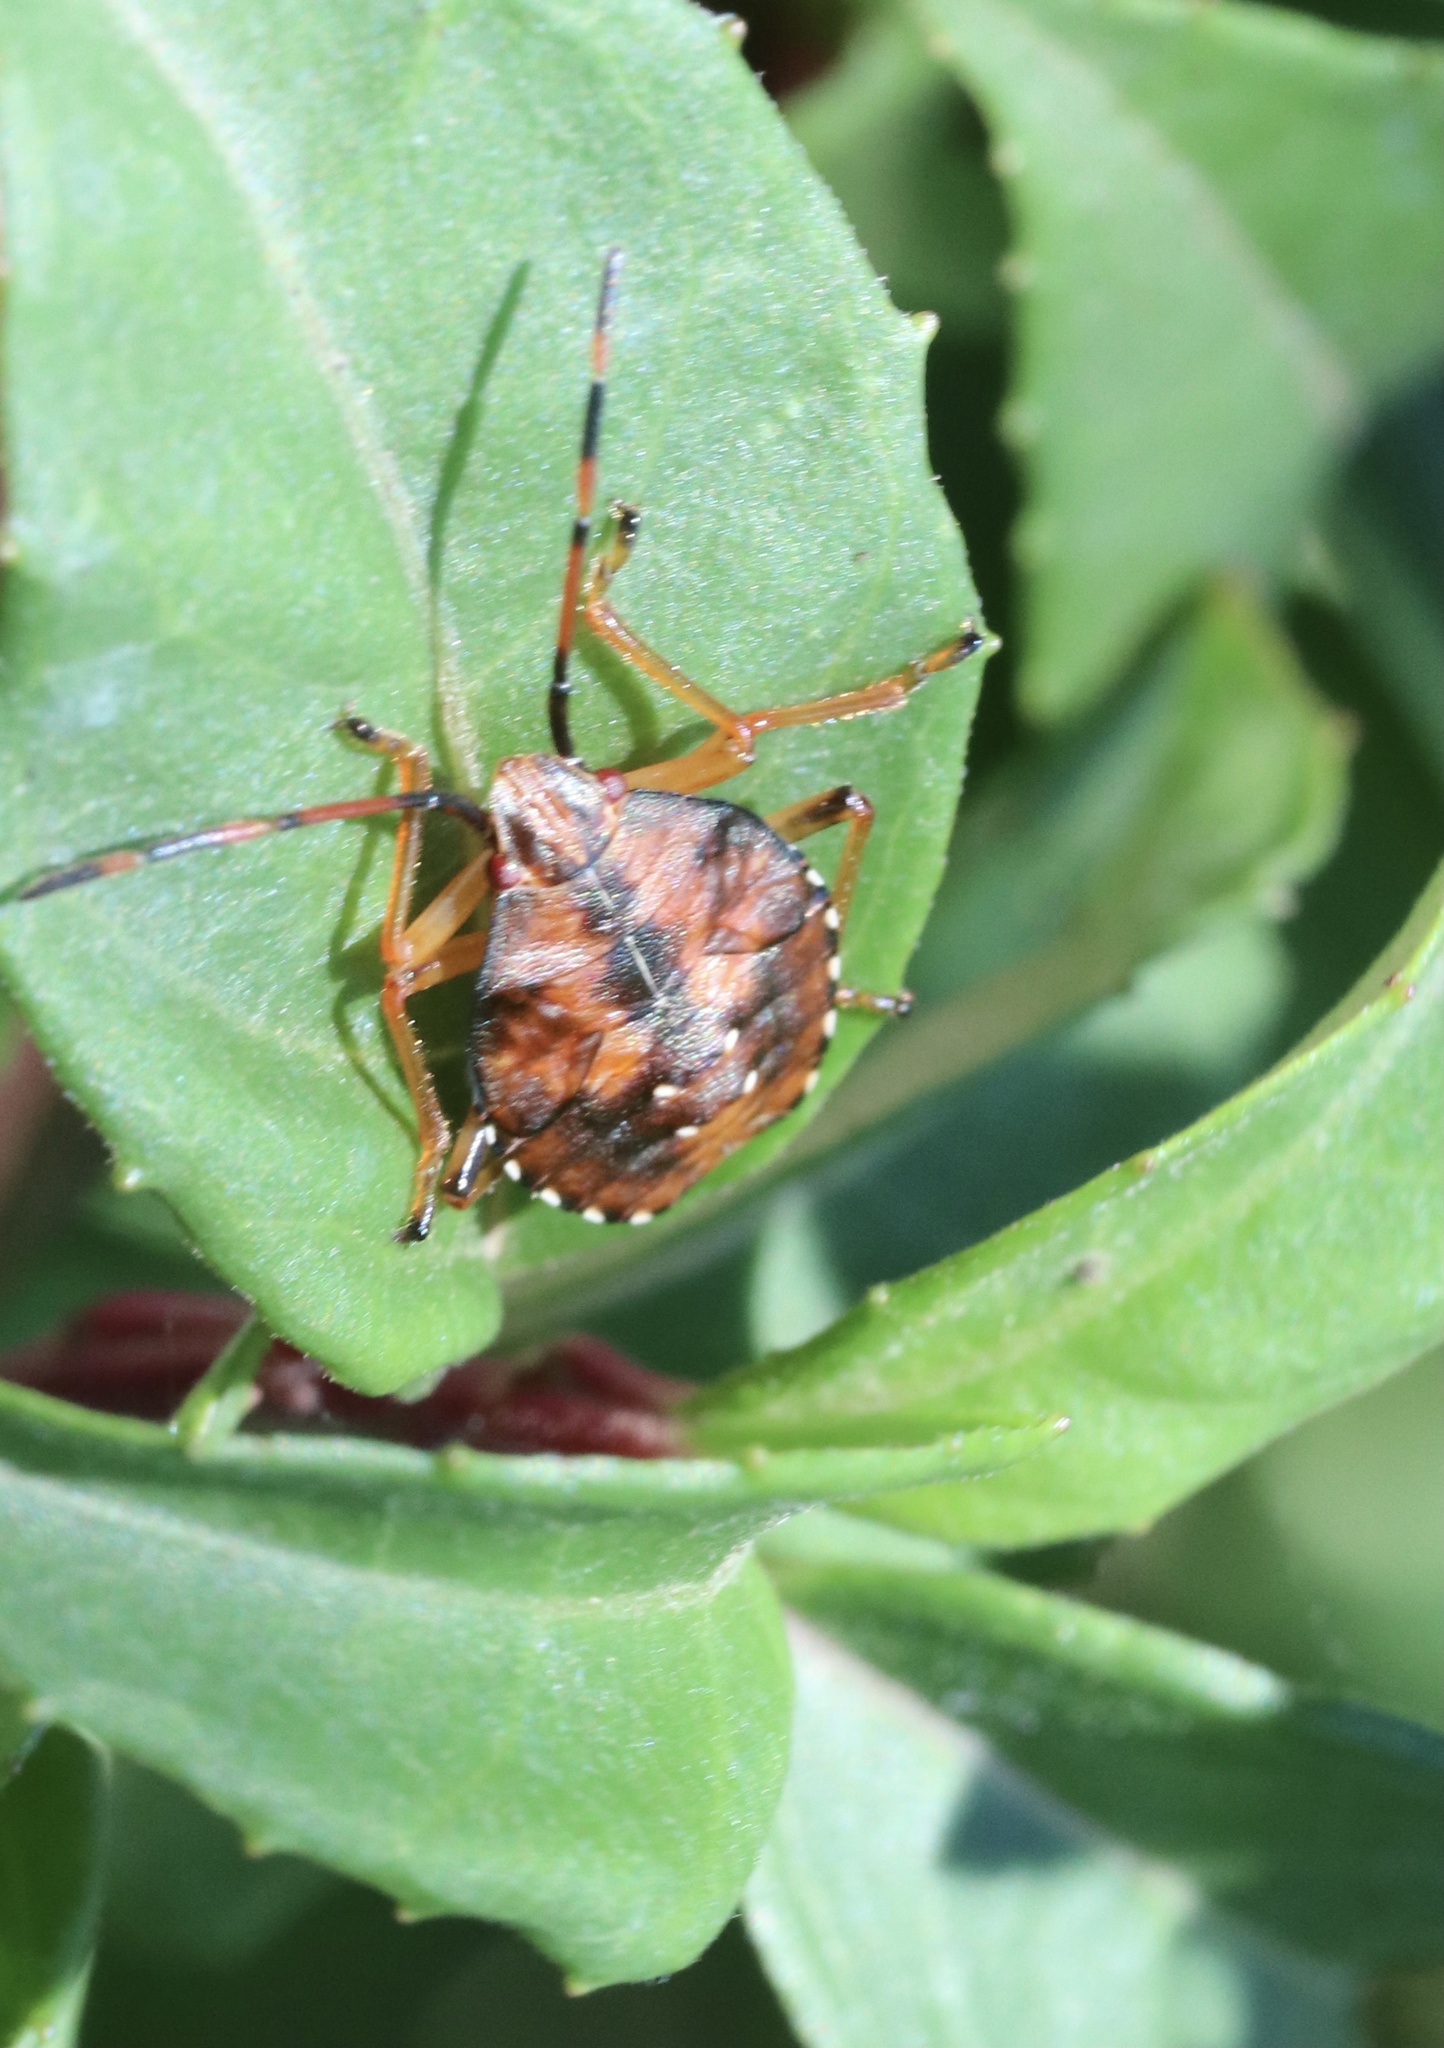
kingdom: Animalia
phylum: Arthropoda
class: Insecta
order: Hemiptera
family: Acanthosomatidae
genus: Planois
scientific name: Planois gayi
